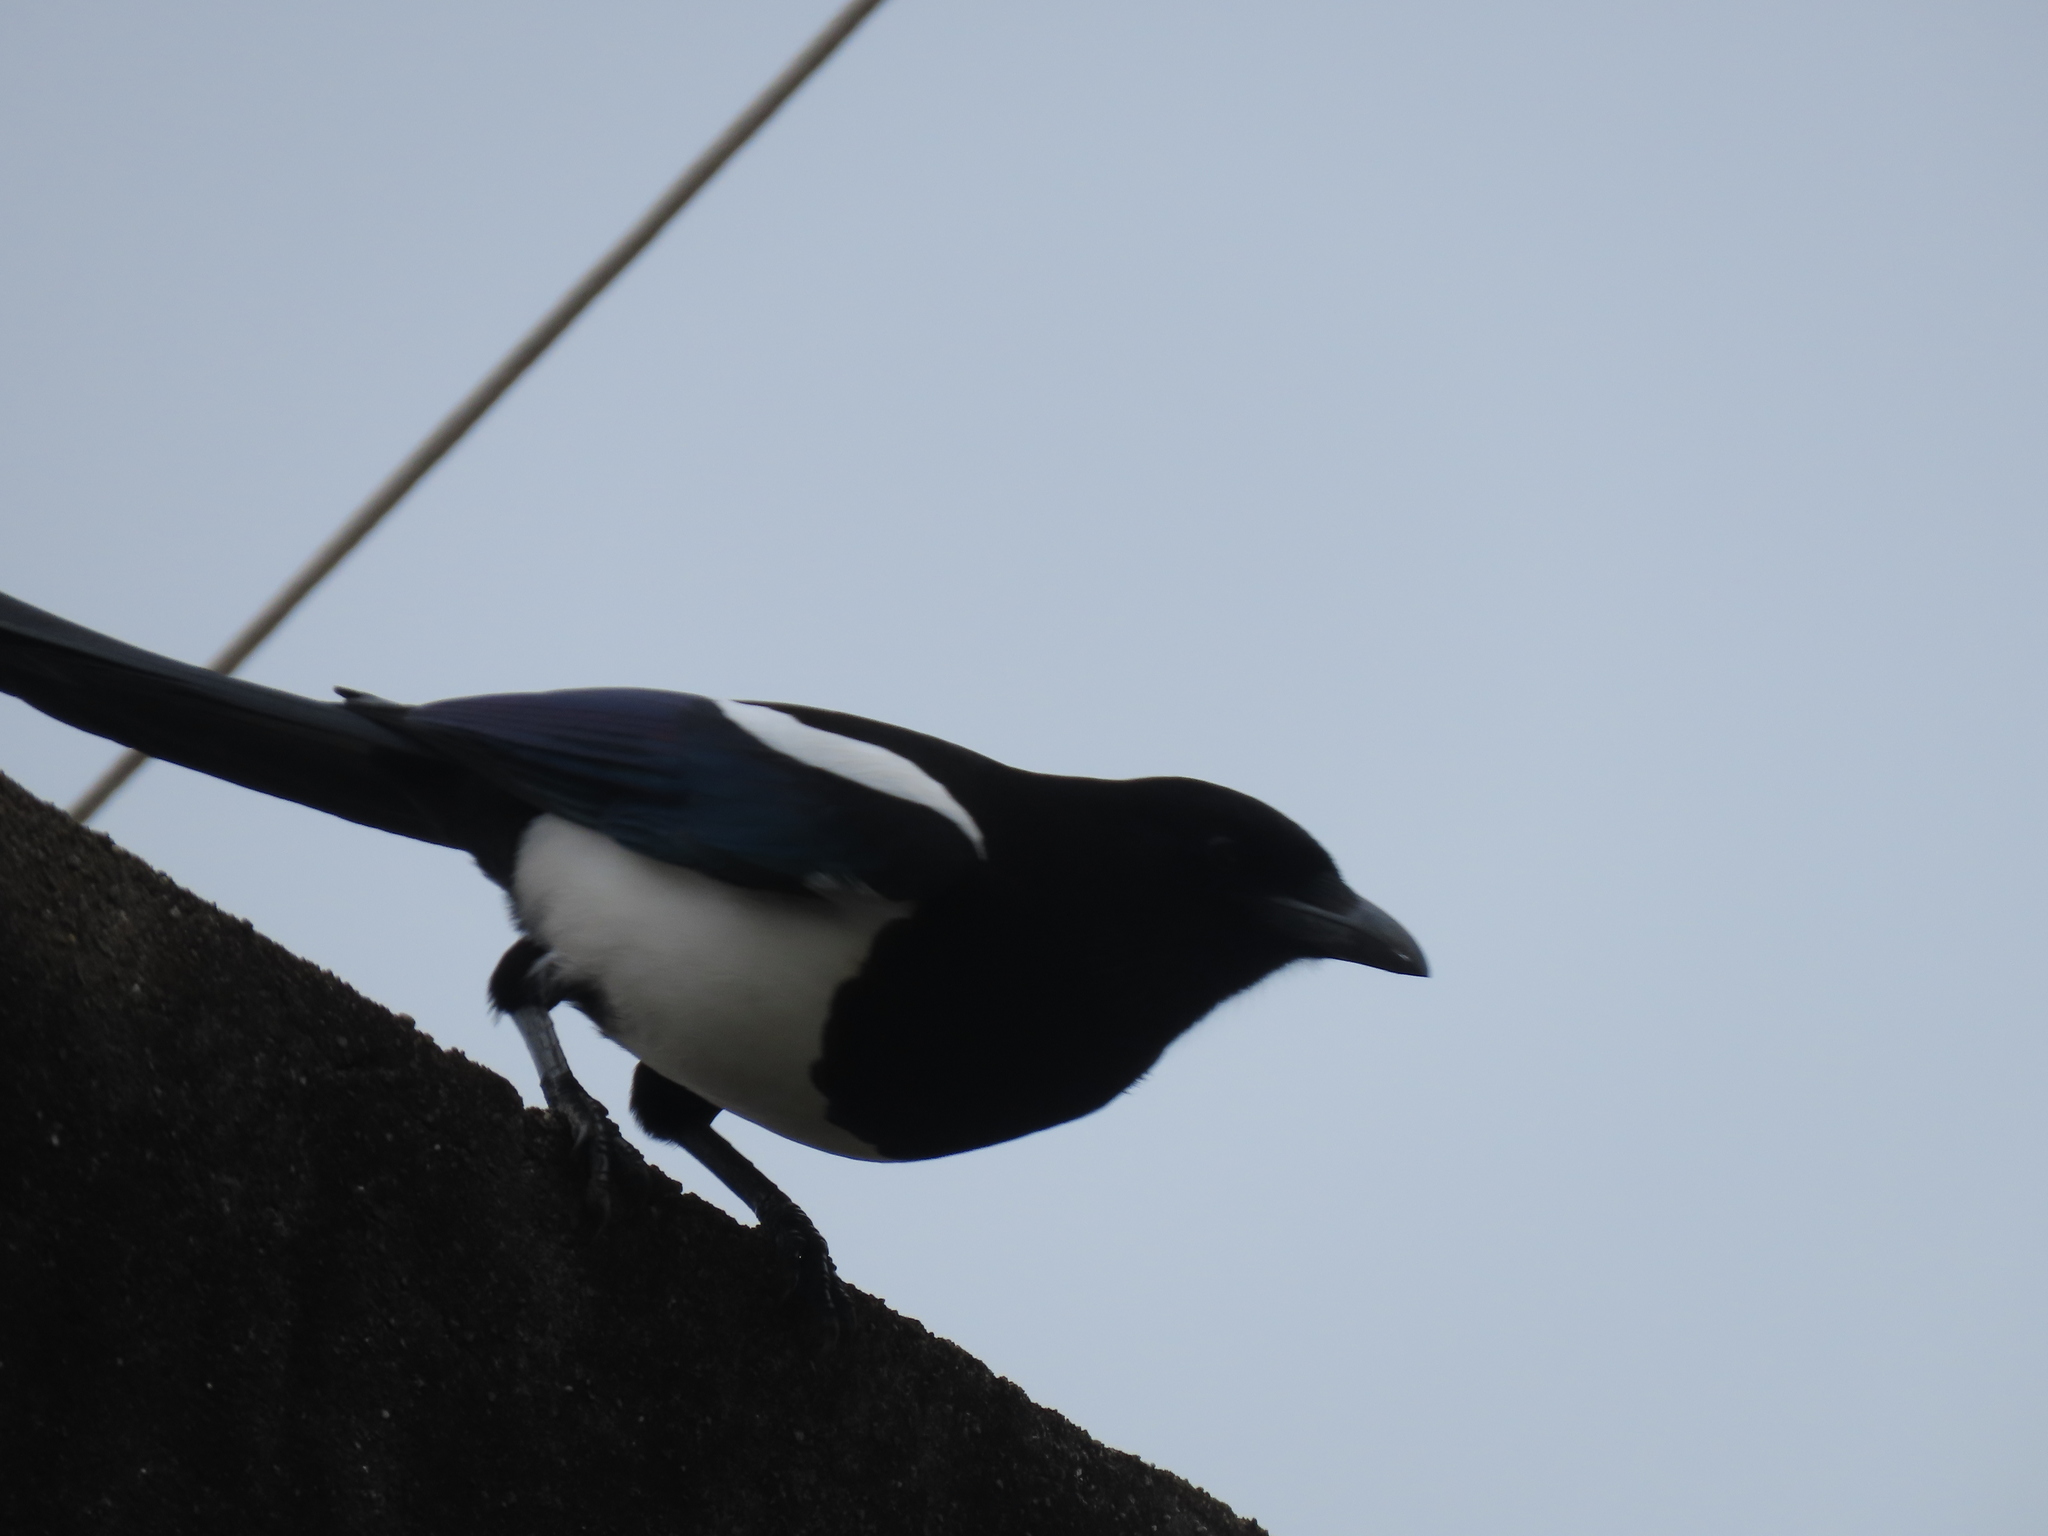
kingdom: Animalia
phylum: Chordata
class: Aves
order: Passeriformes
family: Corvidae
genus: Pica
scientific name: Pica serica
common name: Oriental magpie
